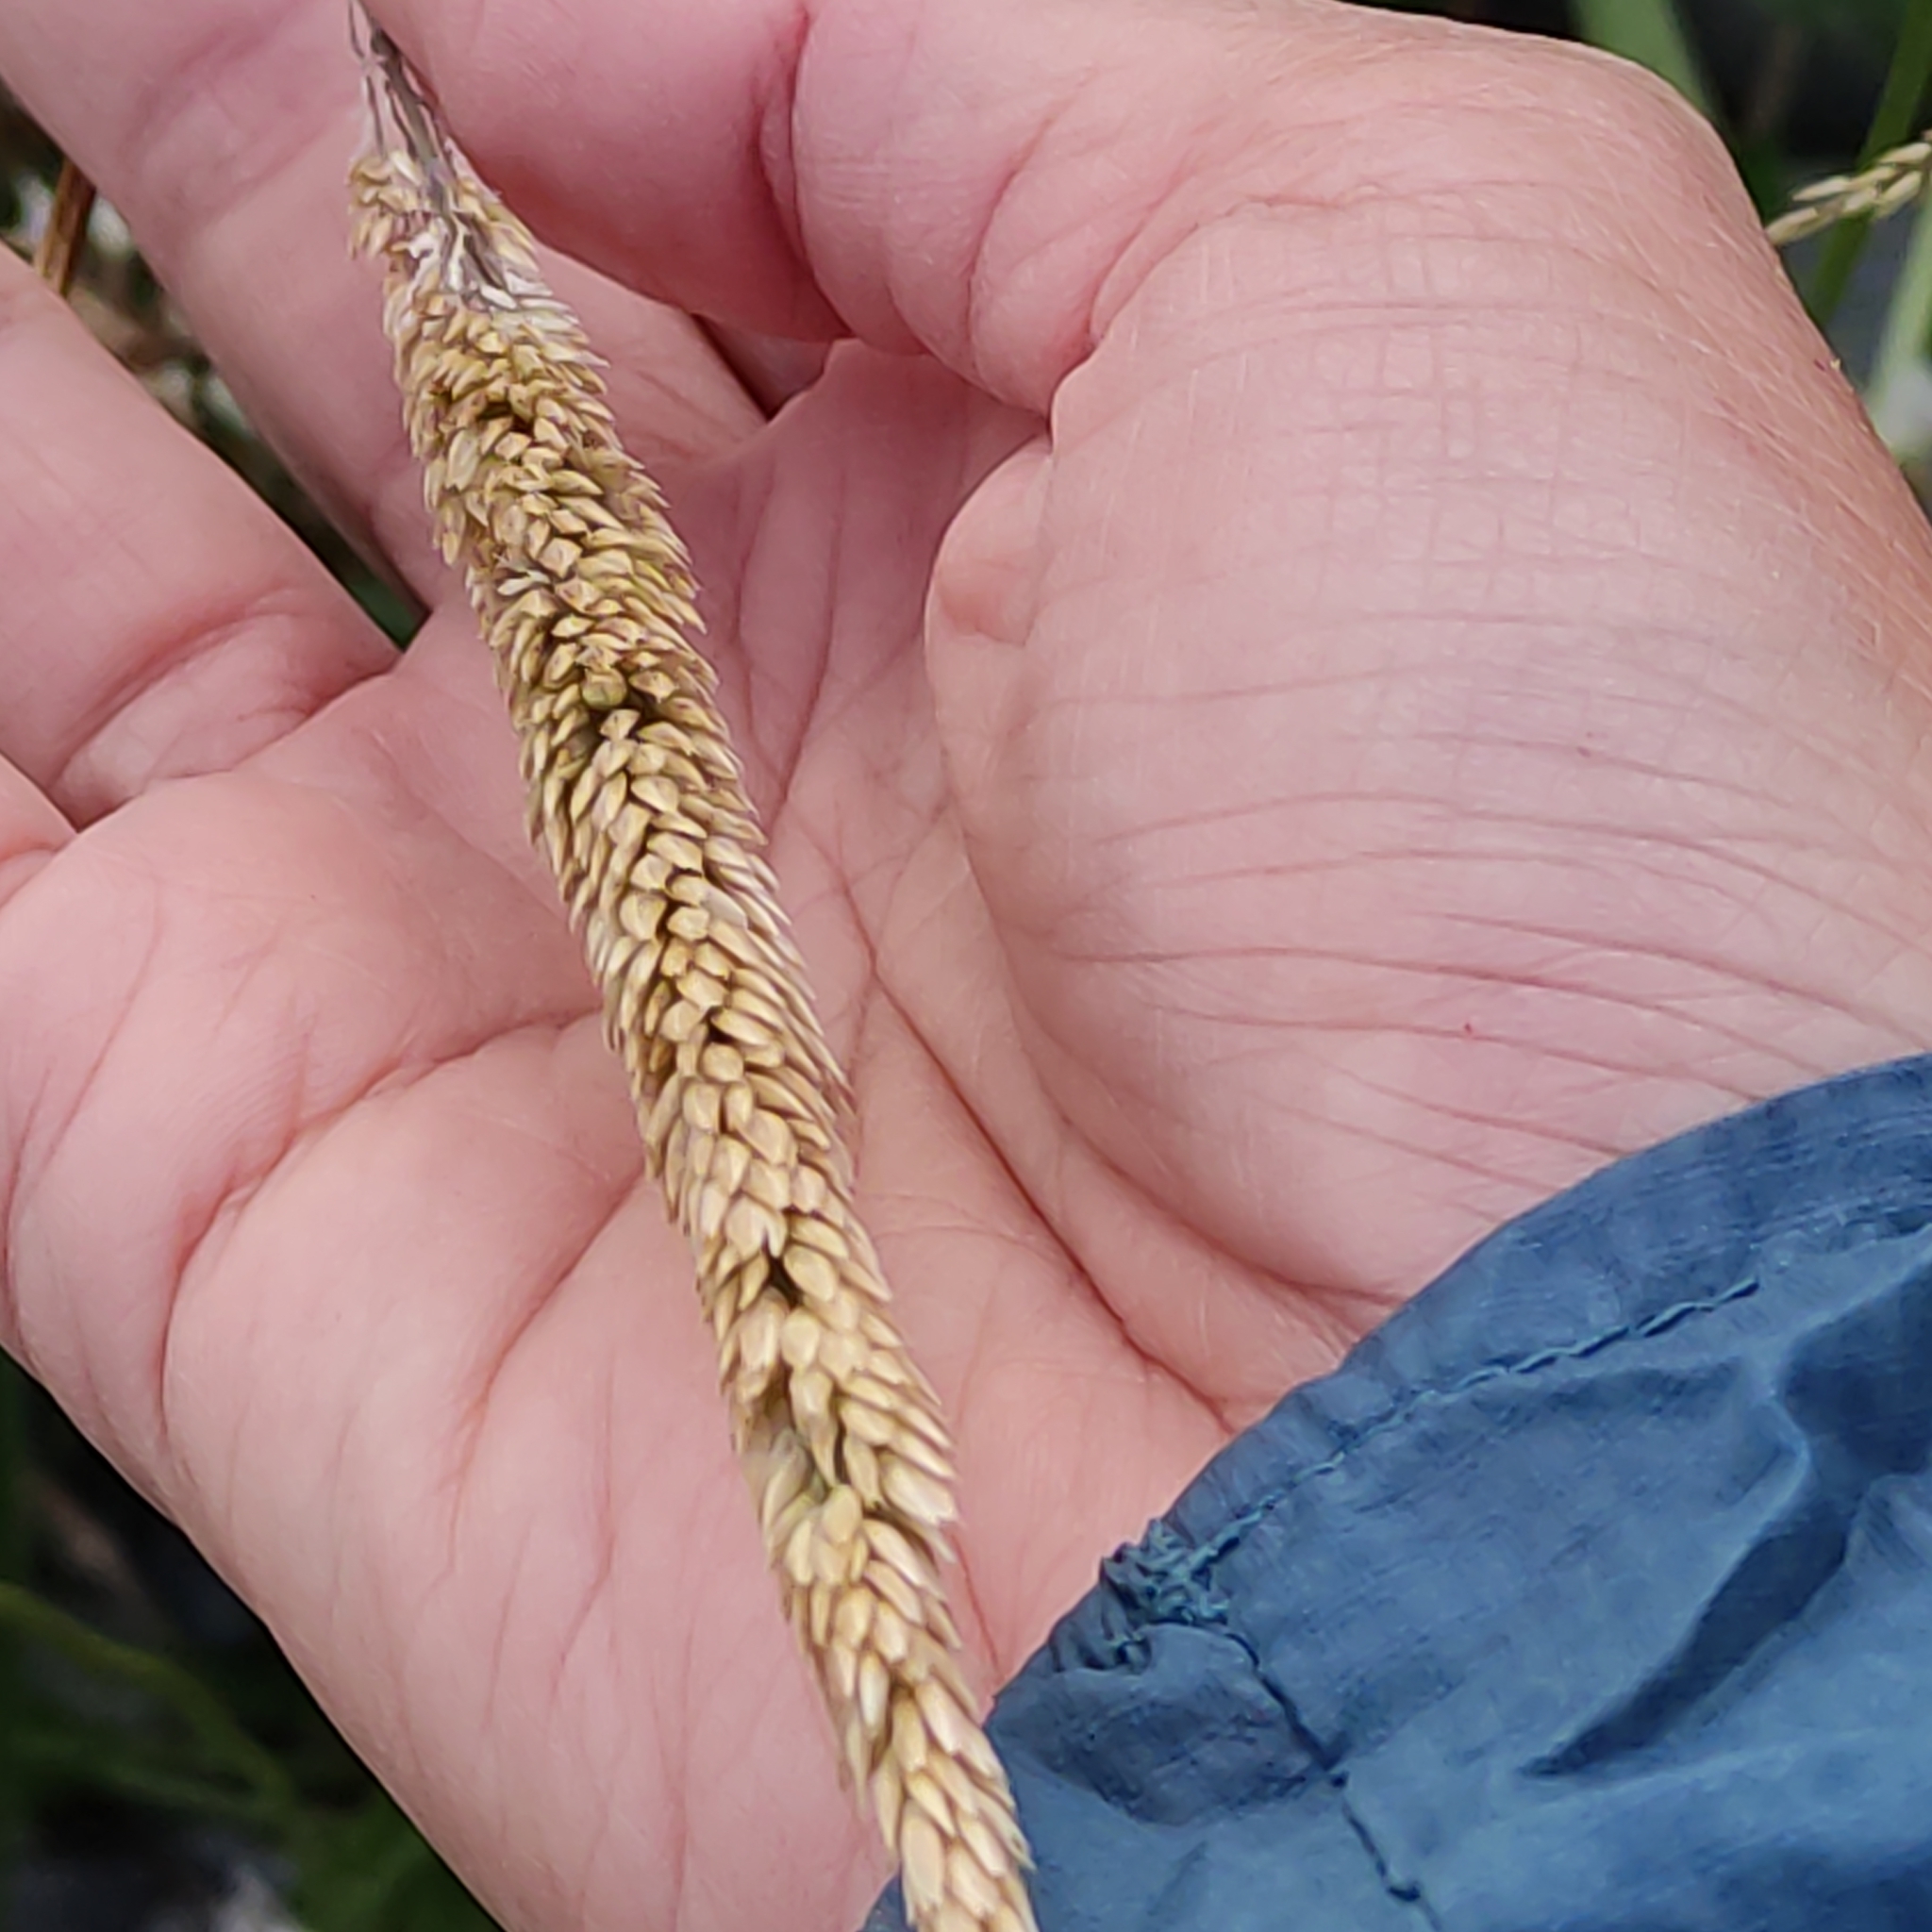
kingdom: Plantae
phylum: Tracheophyta
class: Magnoliopsida
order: Lamiales
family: Plantaginaceae
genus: Plantago
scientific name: Plantago lanceolata
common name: Ribwort plantain
